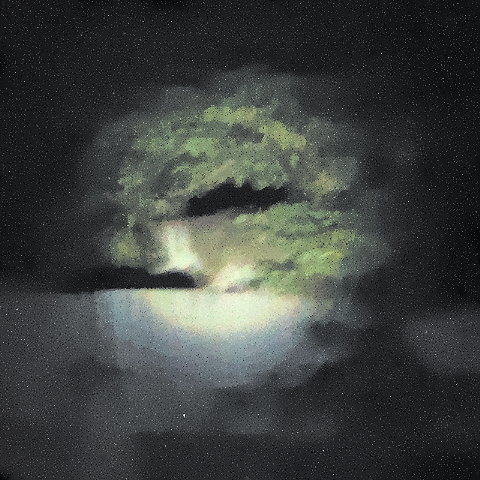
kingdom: Animalia
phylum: Chordata
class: Mammalia
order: Diprotodontia
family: Pseudocheiridae
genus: Pseudocheirus
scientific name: Pseudocheirus peregrinus
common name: Common ringtail possum
